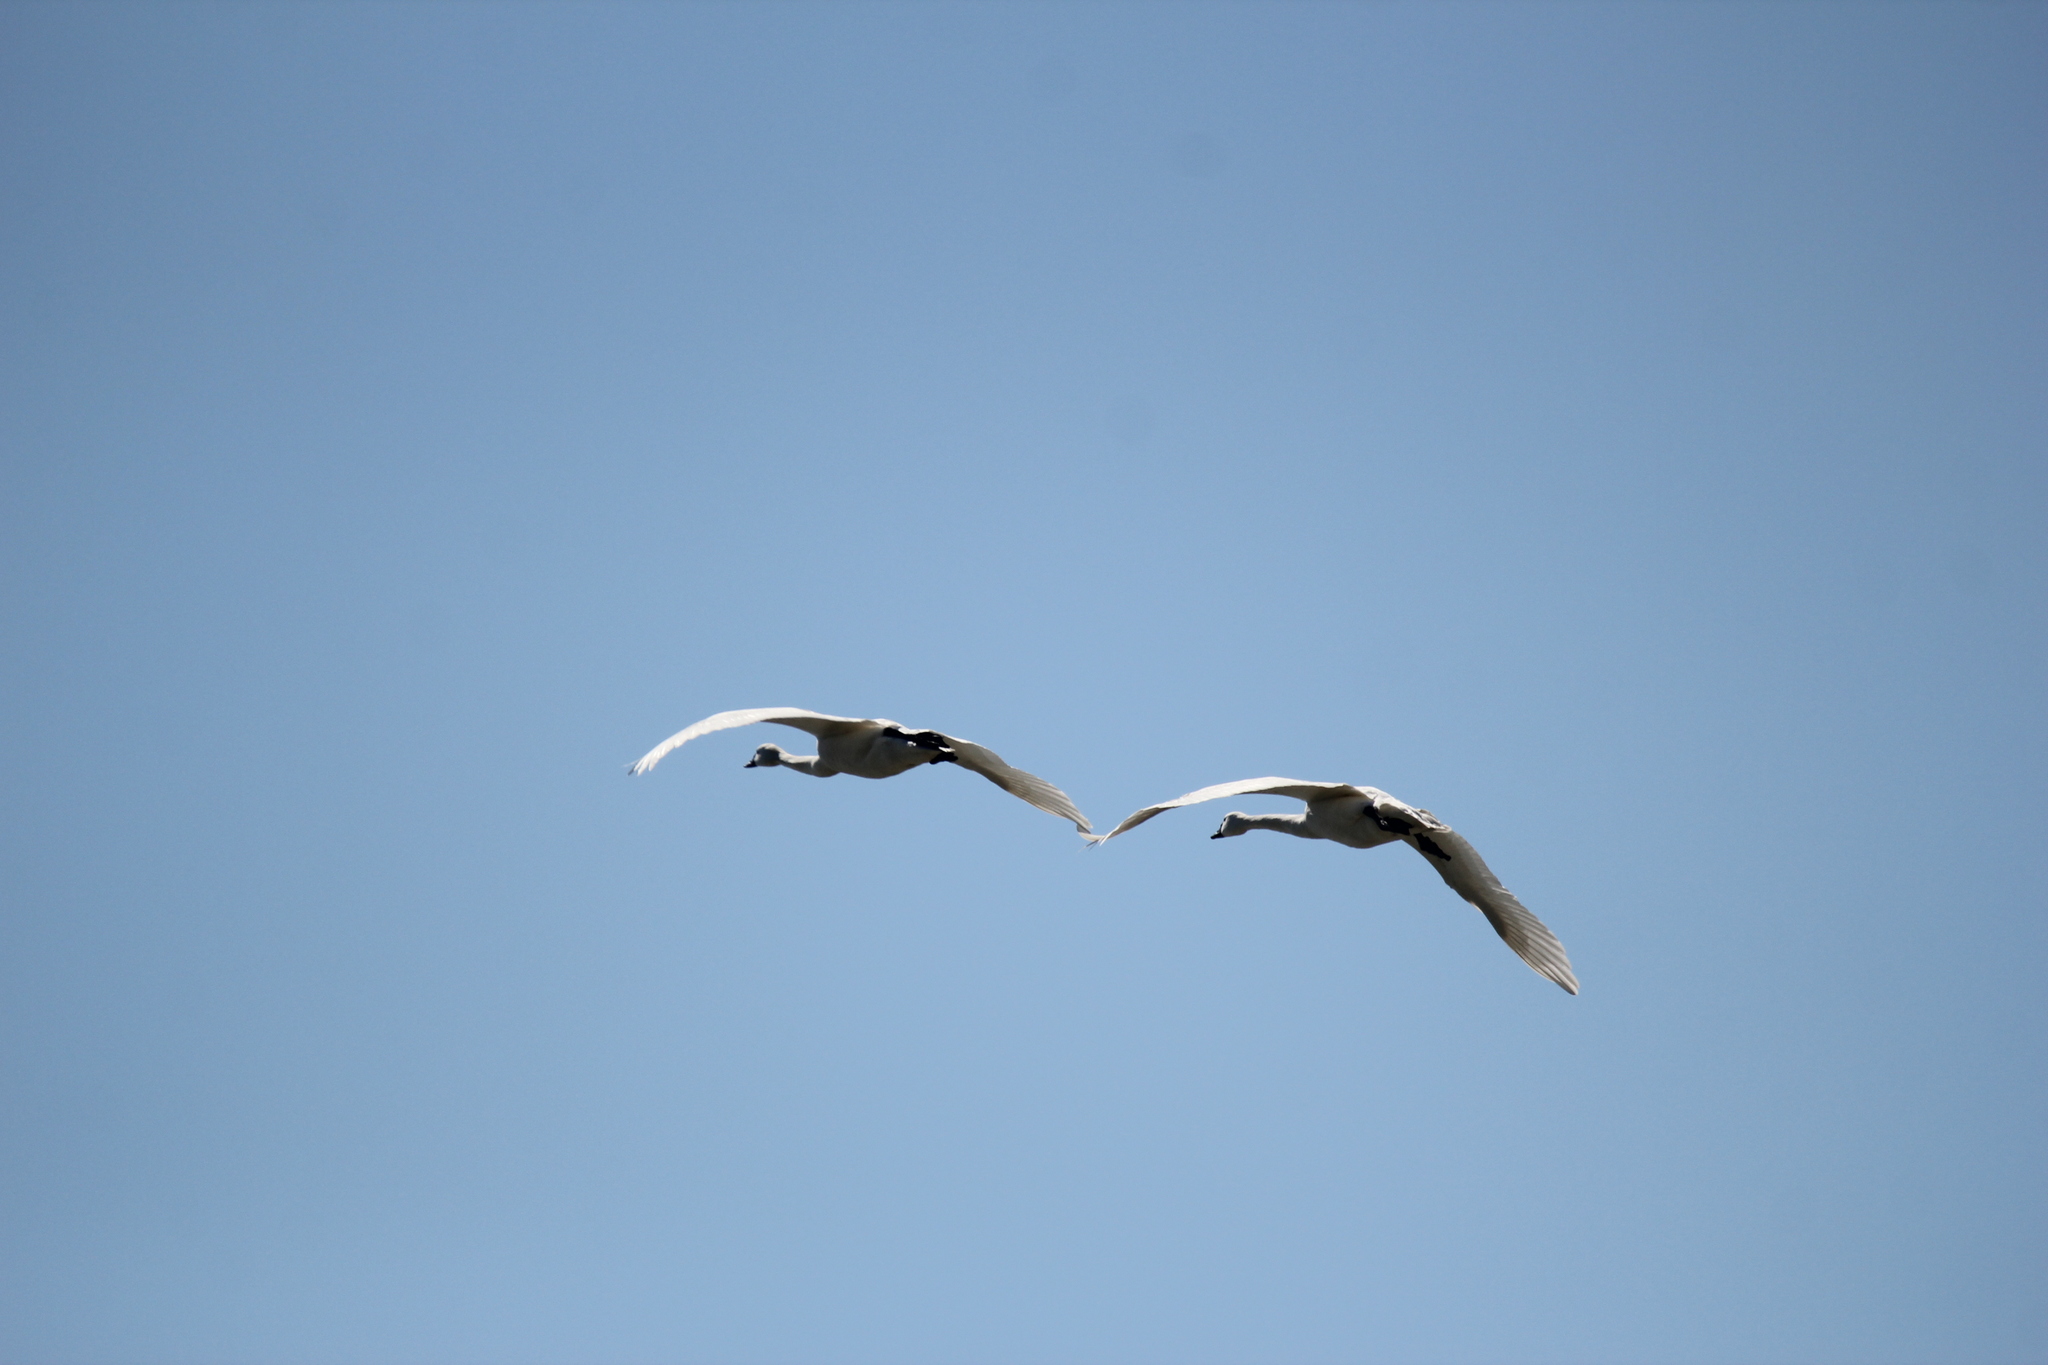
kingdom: Animalia
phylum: Chordata
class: Aves
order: Anseriformes
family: Anatidae
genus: Cygnus
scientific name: Cygnus columbianus
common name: Tundra swan
